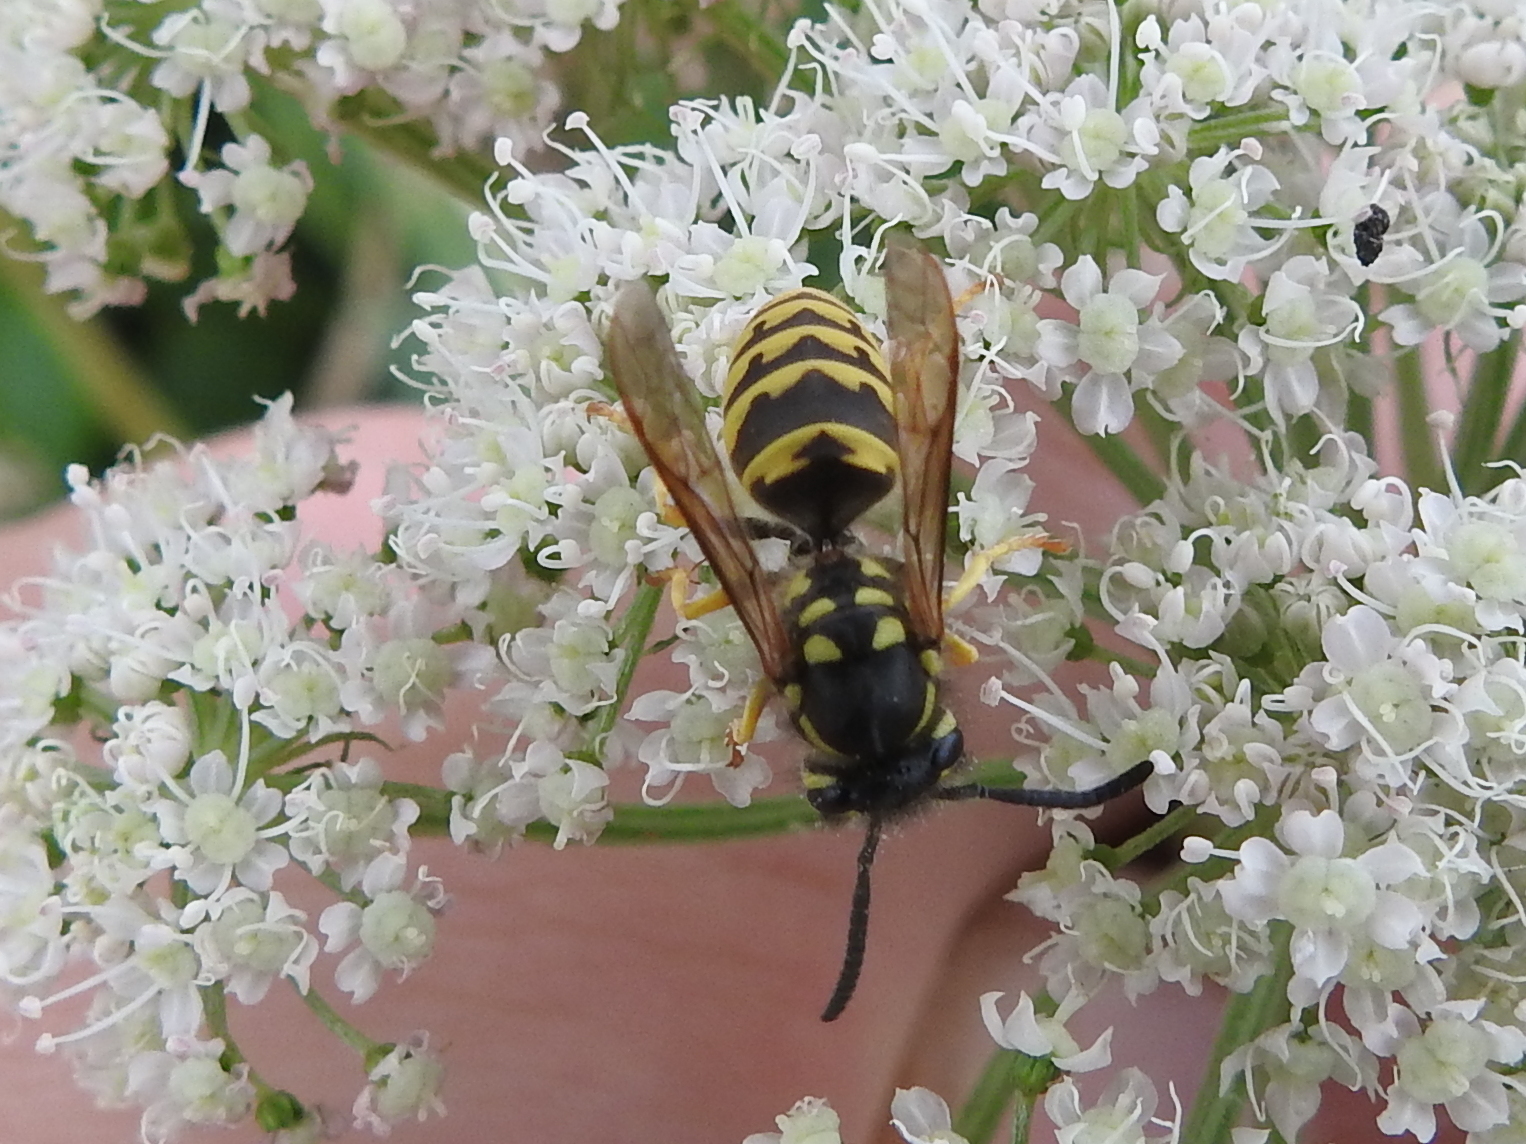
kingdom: Animalia
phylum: Arthropoda
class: Insecta
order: Hymenoptera
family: Vespidae
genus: Vespula
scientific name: Vespula germanica
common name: German wasp
